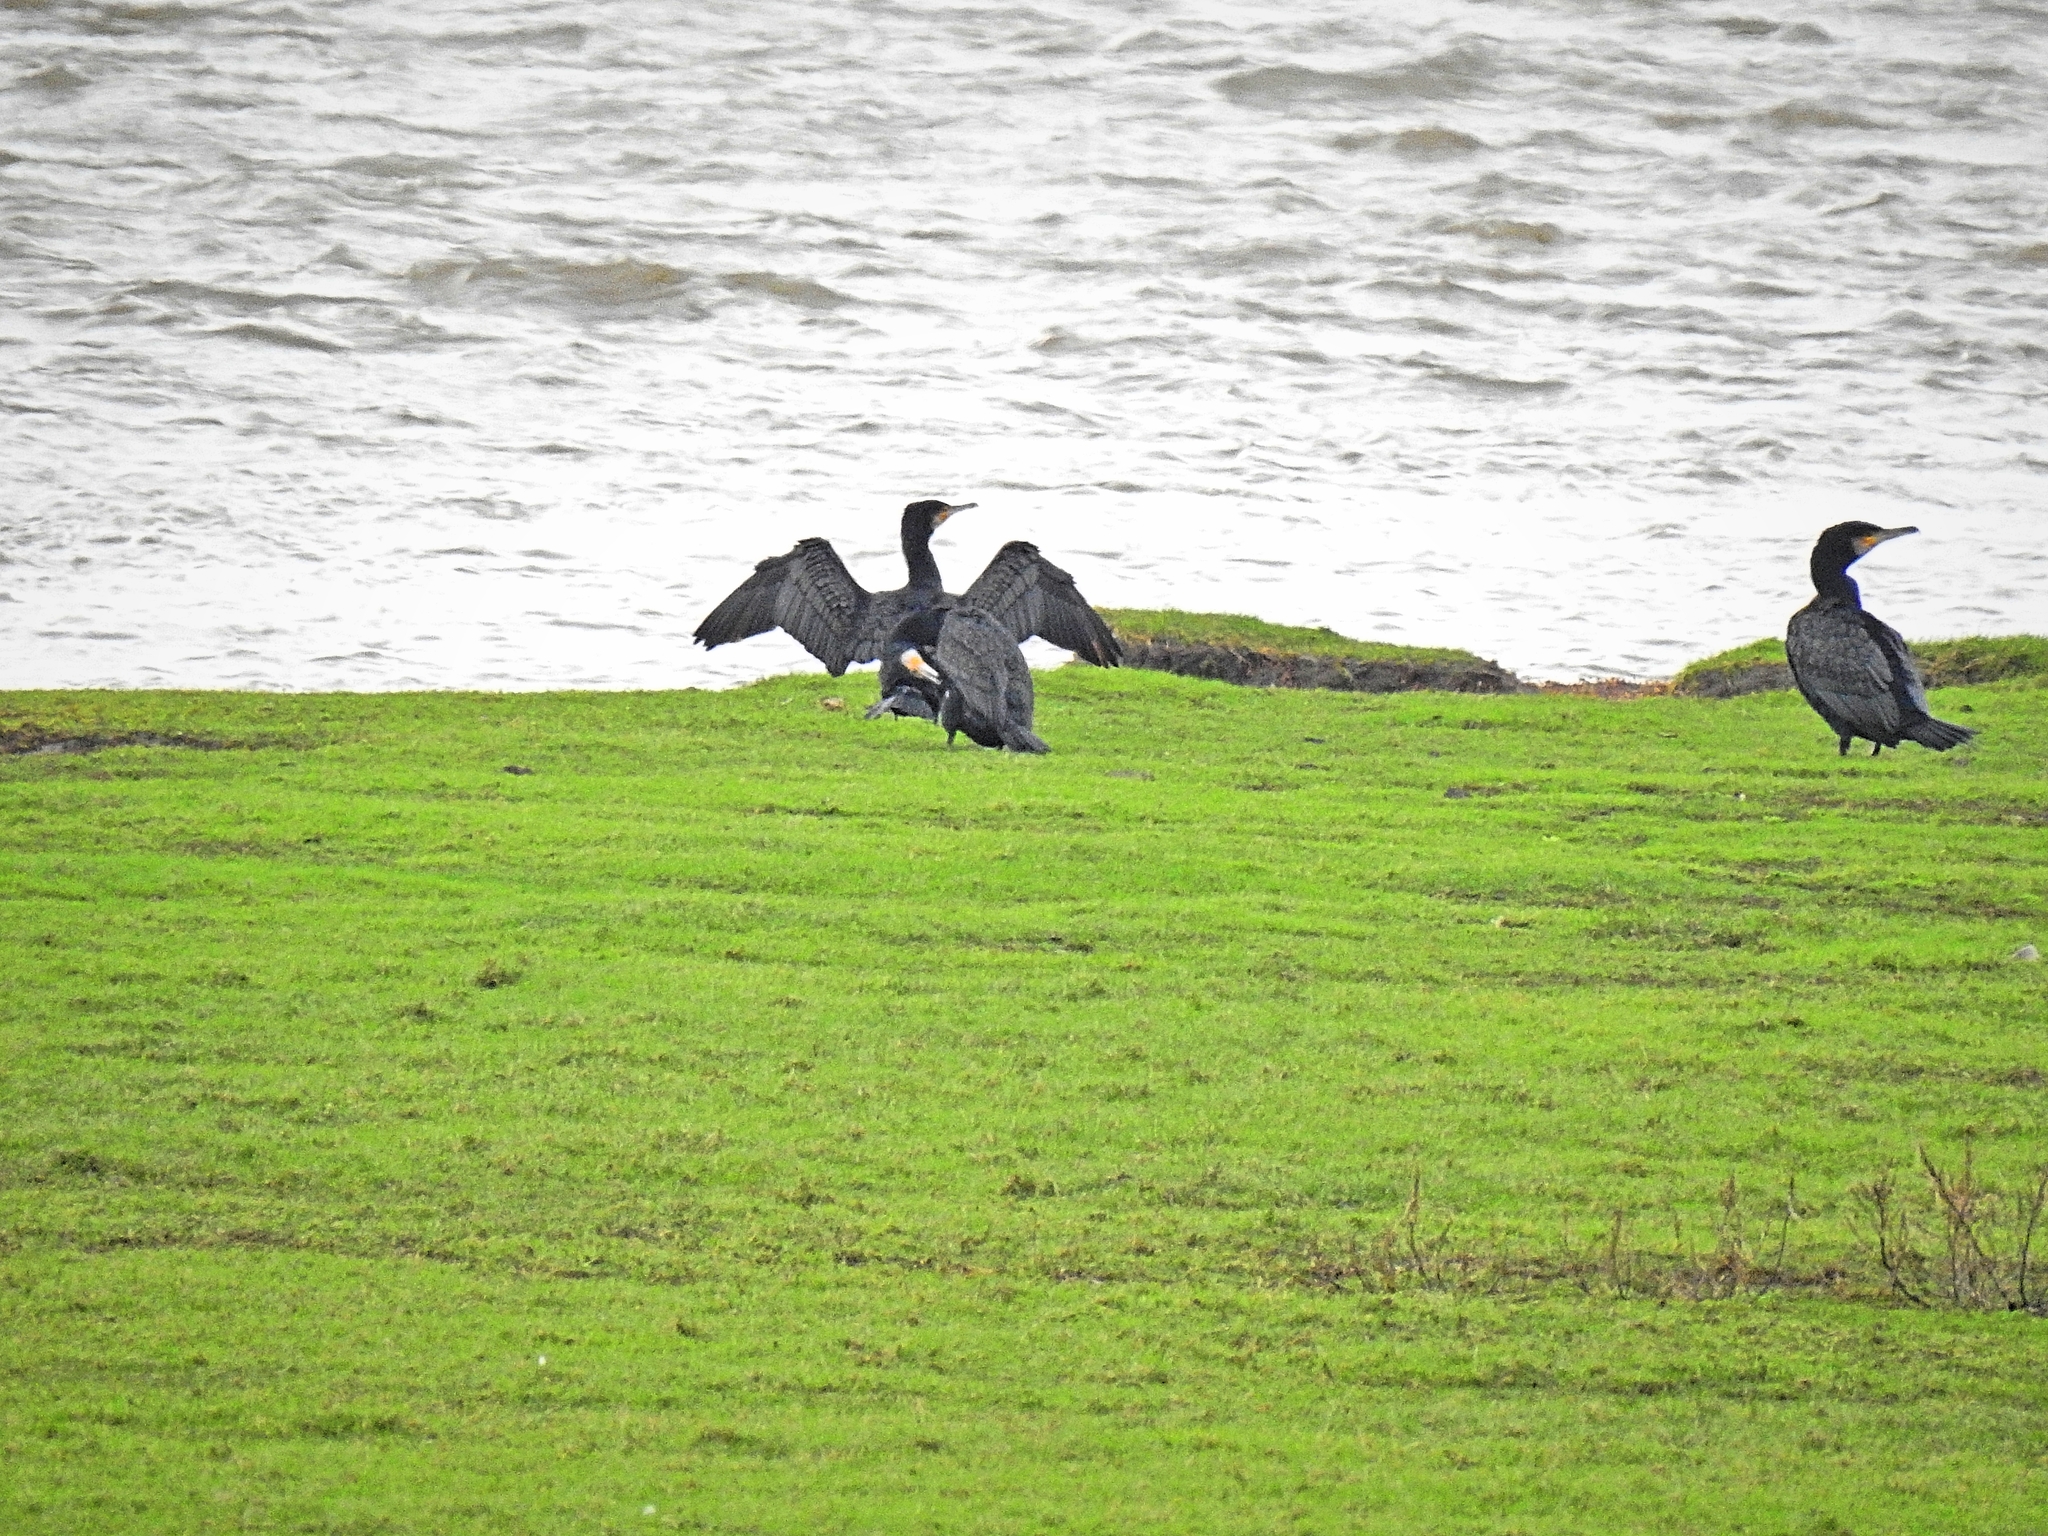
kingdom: Animalia
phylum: Chordata
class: Aves
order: Suliformes
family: Phalacrocoracidae
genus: Phalacrocorax
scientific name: Phalacrocorax carbo
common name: Great cormorant
